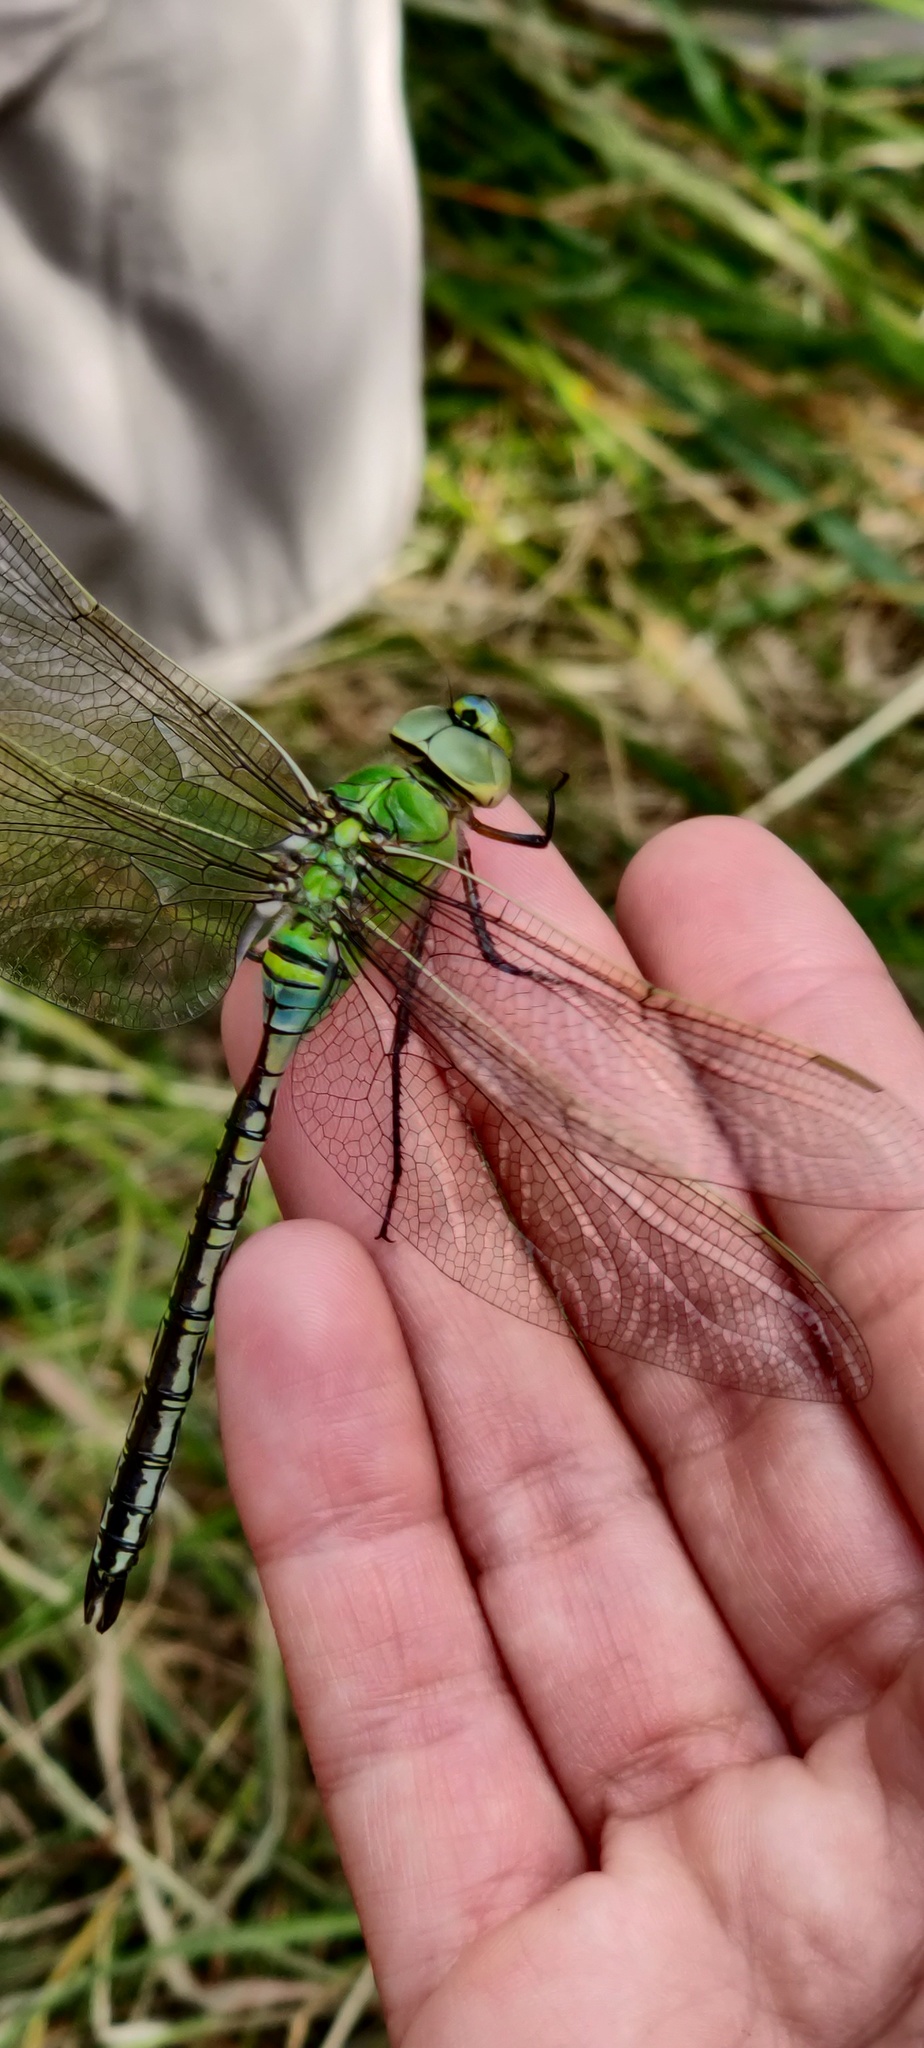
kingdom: Animalia
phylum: Arthropoda
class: Insecta
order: Odonata
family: Aeshnidae
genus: Anax
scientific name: Anax imperator
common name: Emperor dragonfly
